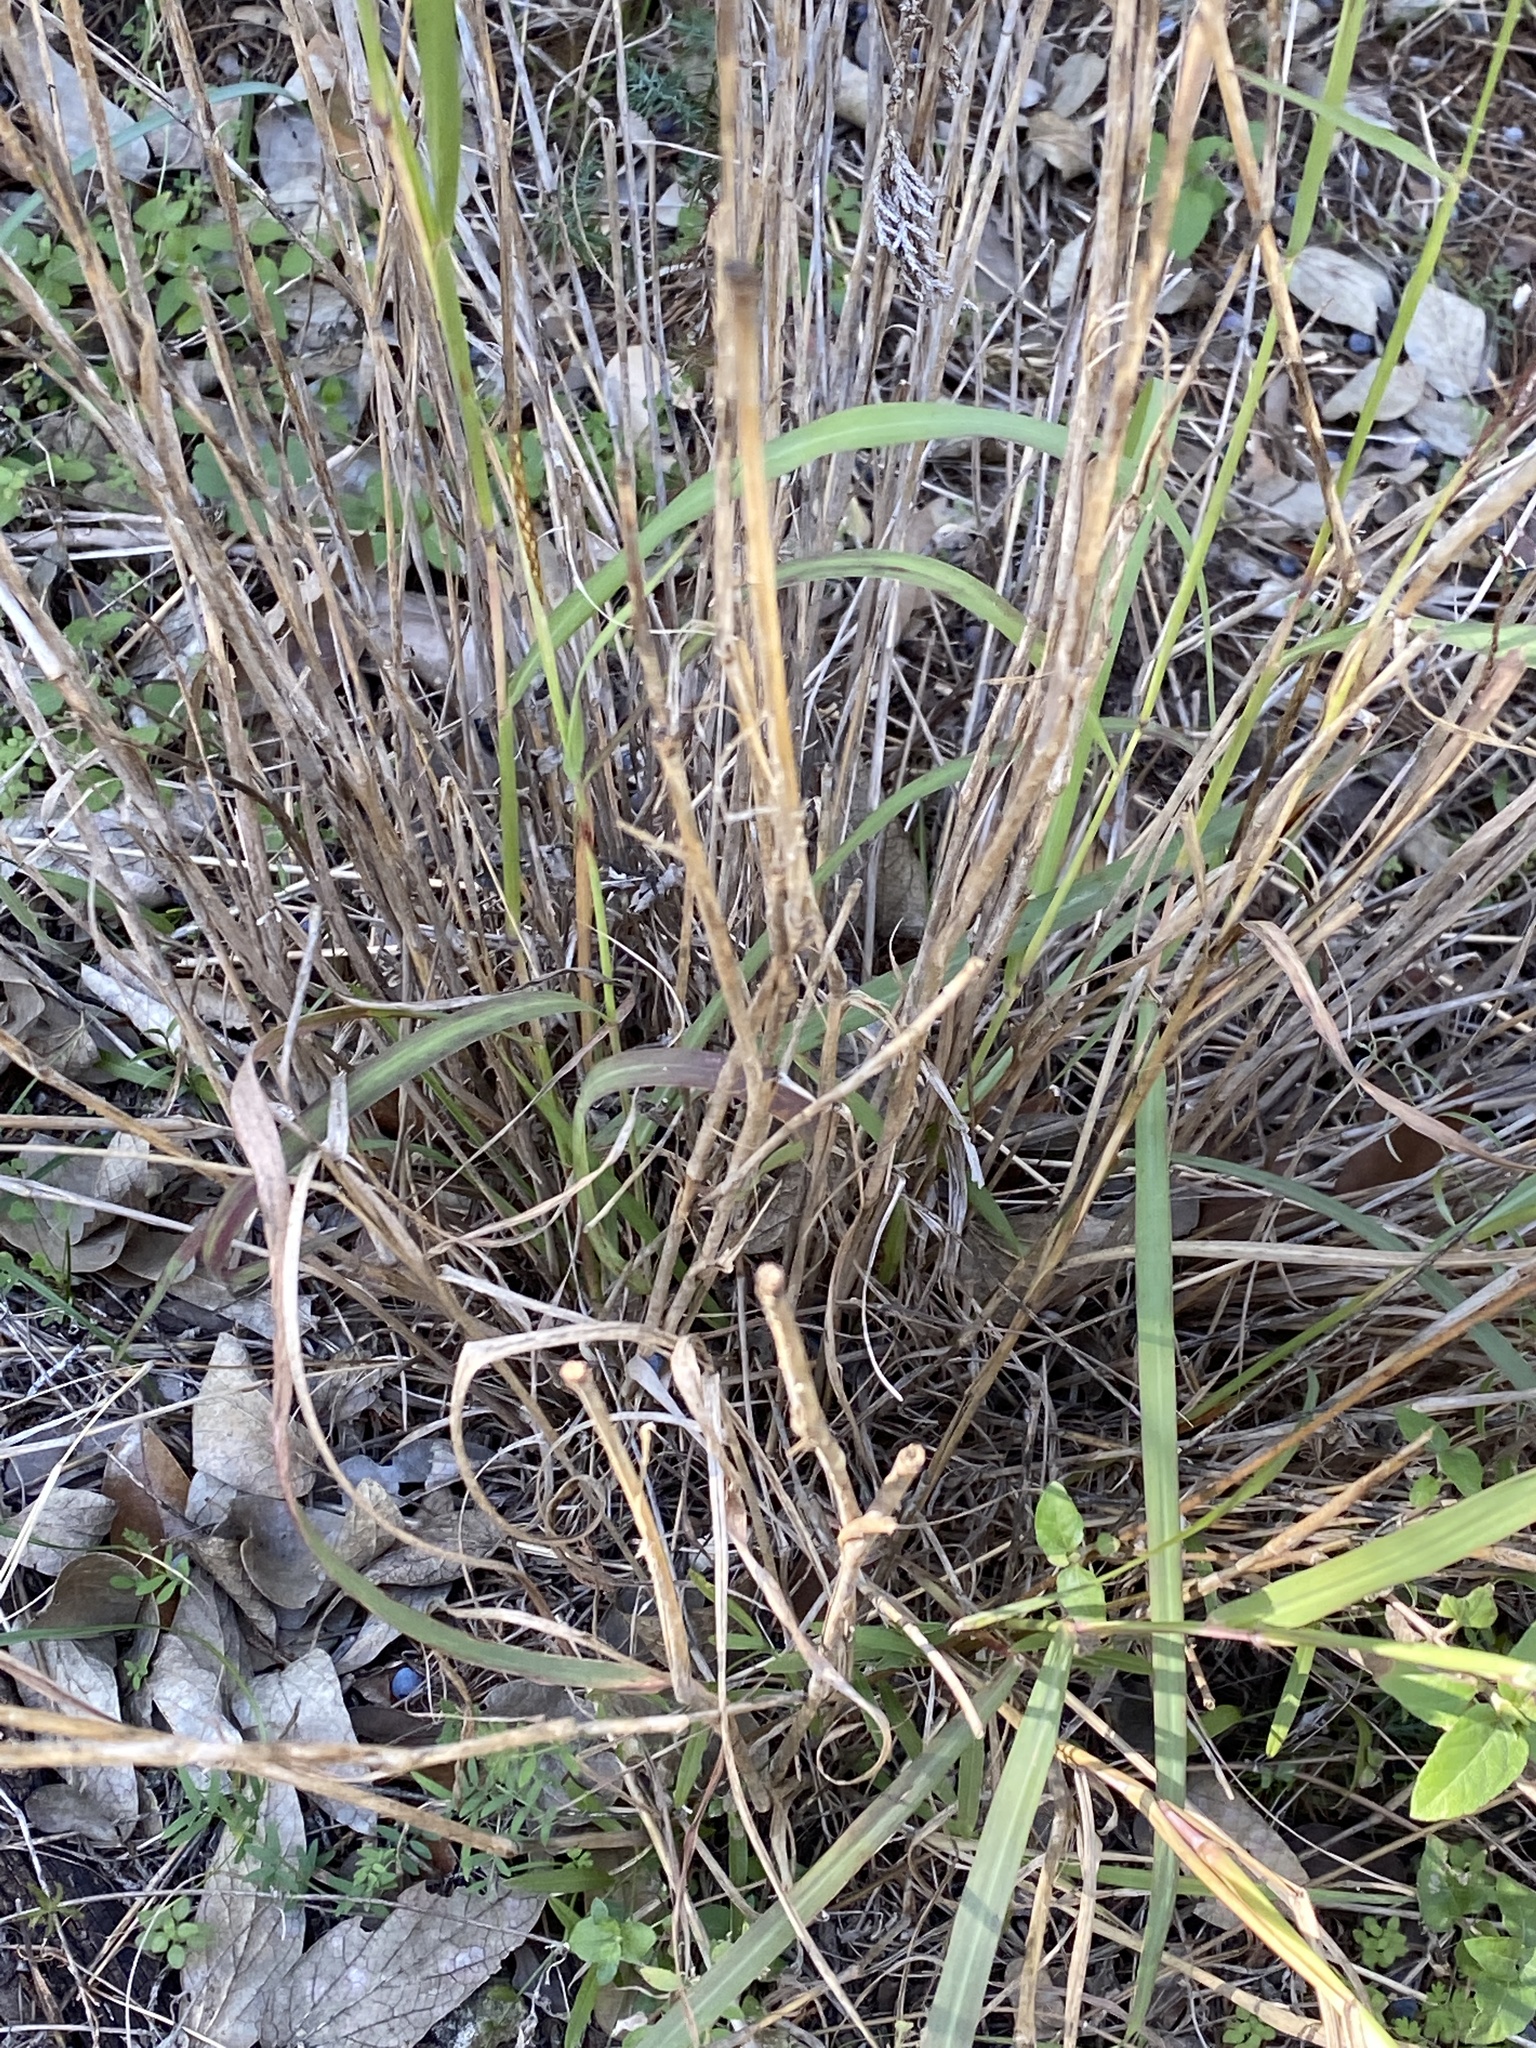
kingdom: Plantae
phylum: Tracheophyta
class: Liliopsida
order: Poales
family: Poaceae
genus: Bothriochloa
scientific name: Bothriochloa ischaemum
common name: Yellow bluestem
